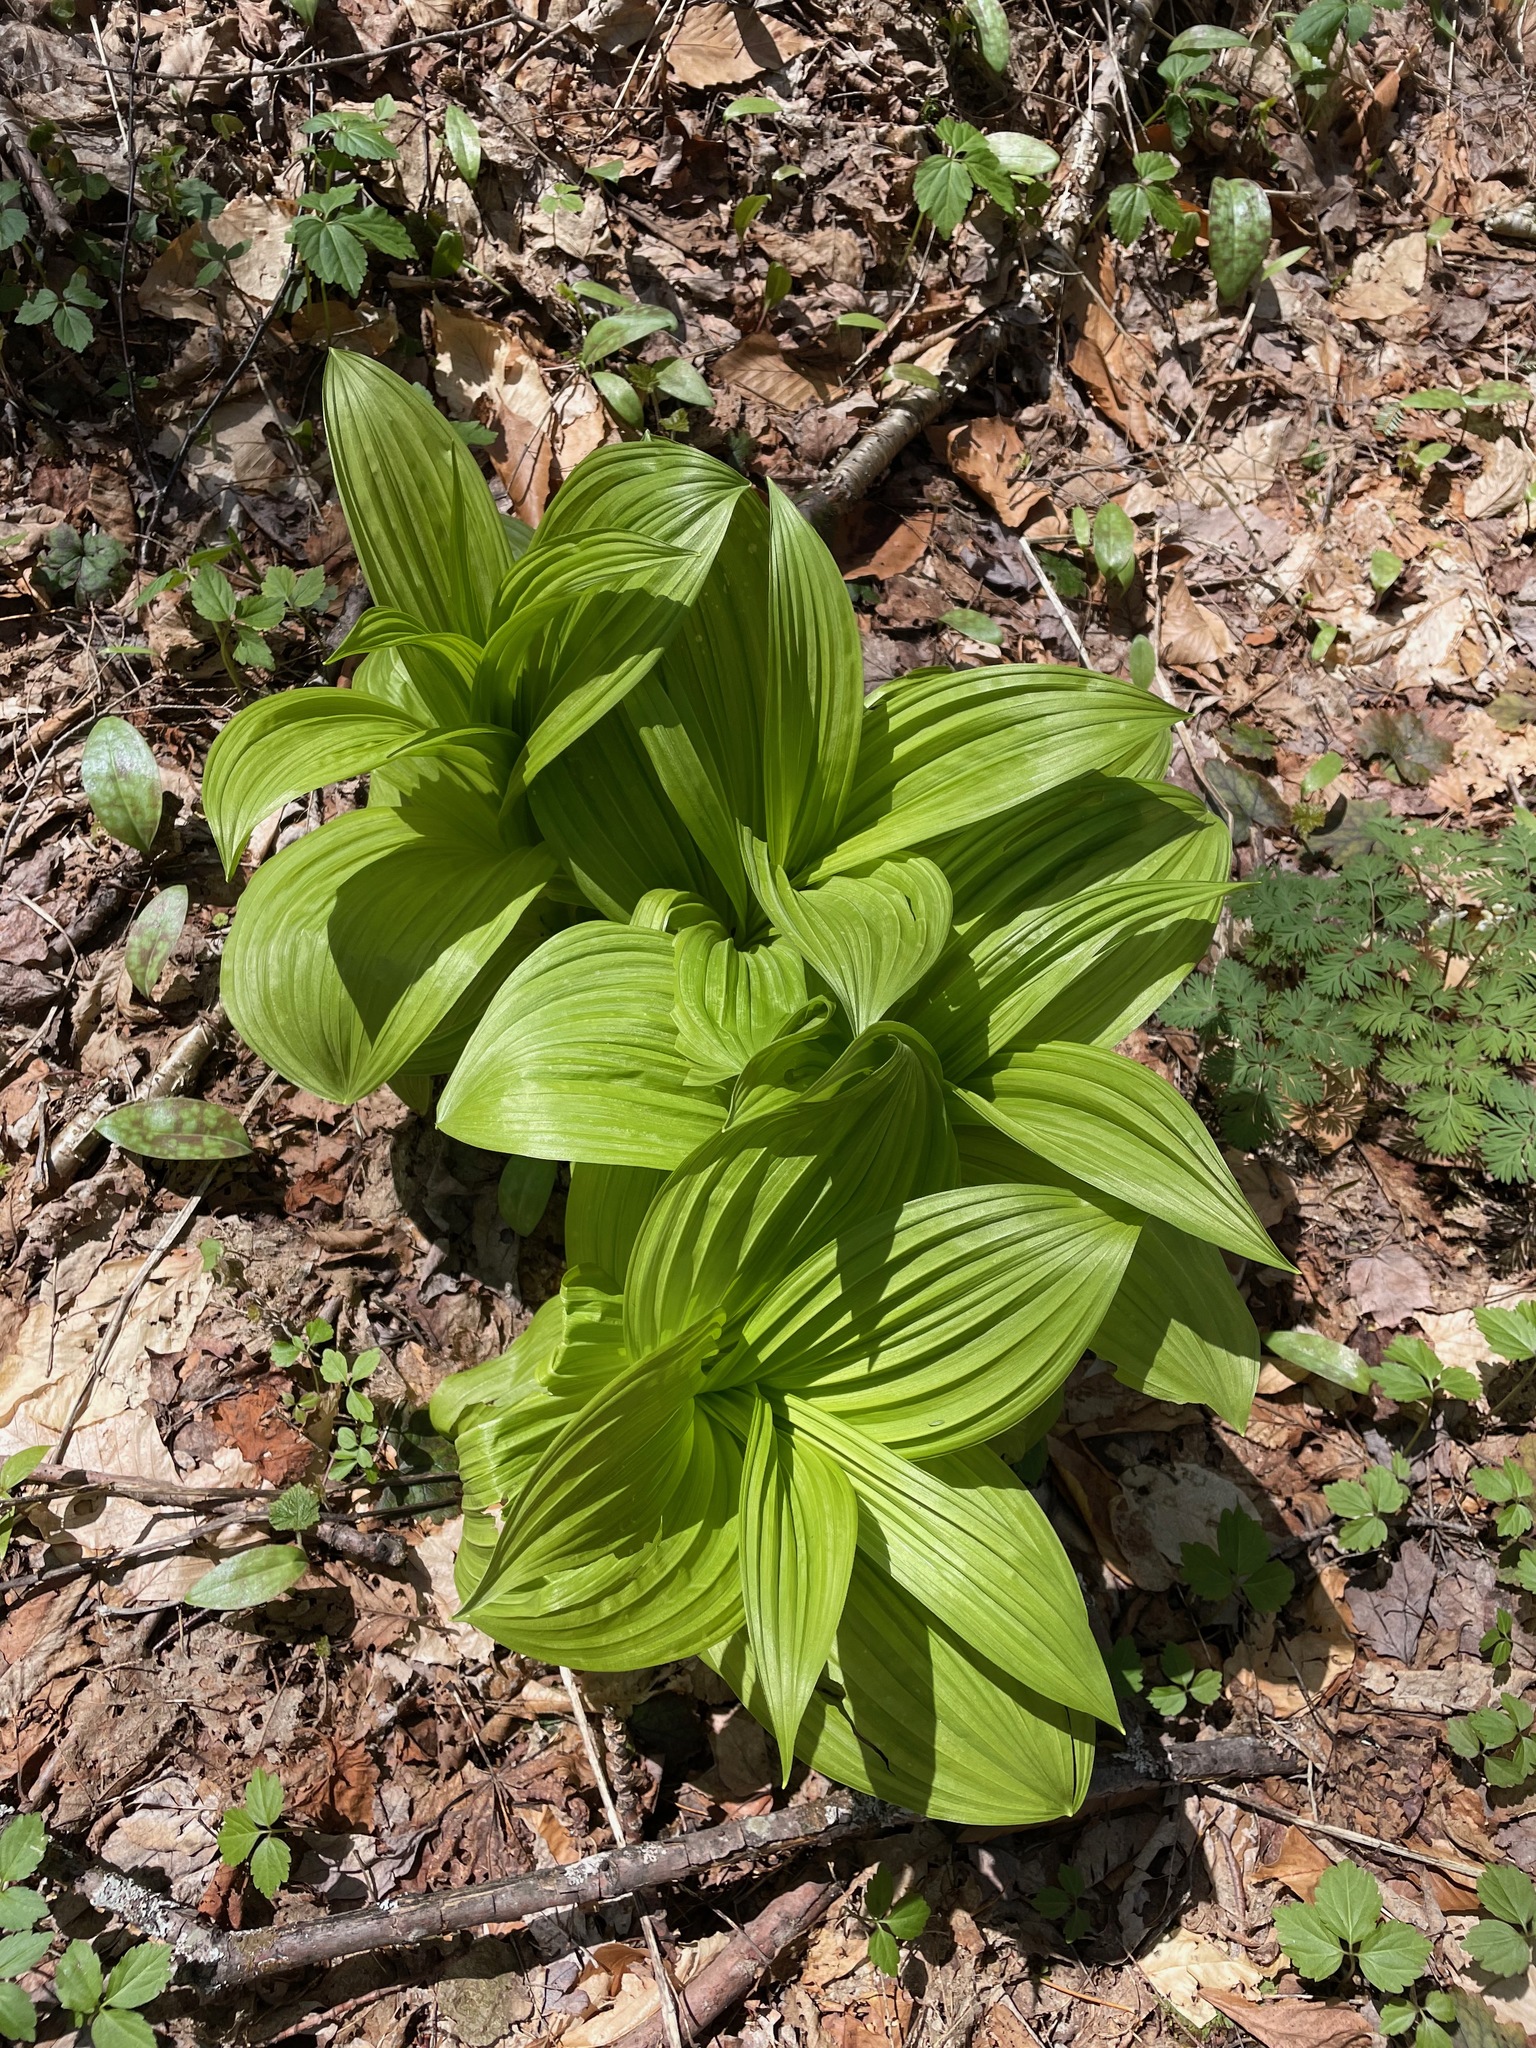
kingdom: Plantae
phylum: Tracheophyta
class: Liliopsida
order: Liliales
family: Melanthiaceae
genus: Veratrum
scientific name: Veratrum viride
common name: American false hellebore
